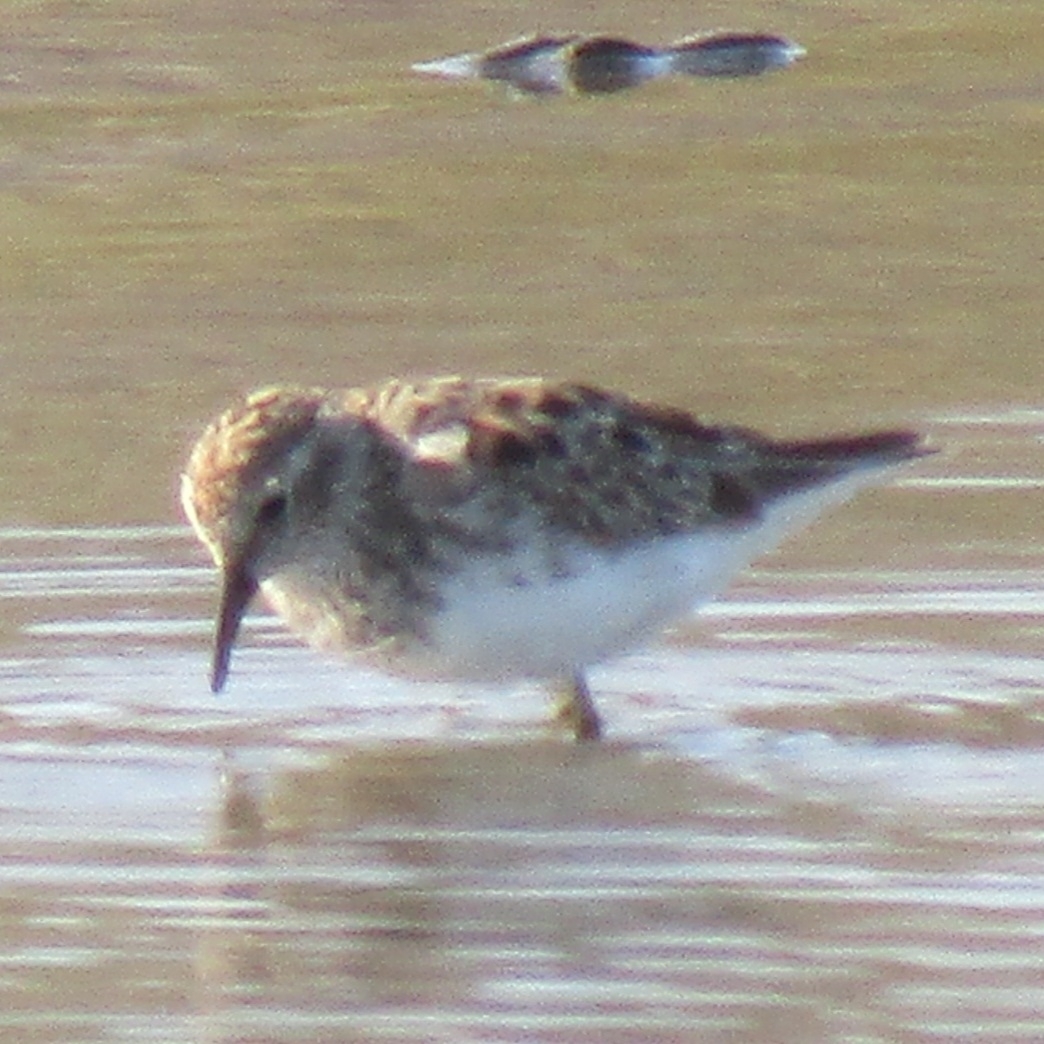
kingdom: Animalia
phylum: Chordata
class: Aves
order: Charadriiformes
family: Scolopacidae
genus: Calidris
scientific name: Calidris minutilla
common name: Least sandpiper
